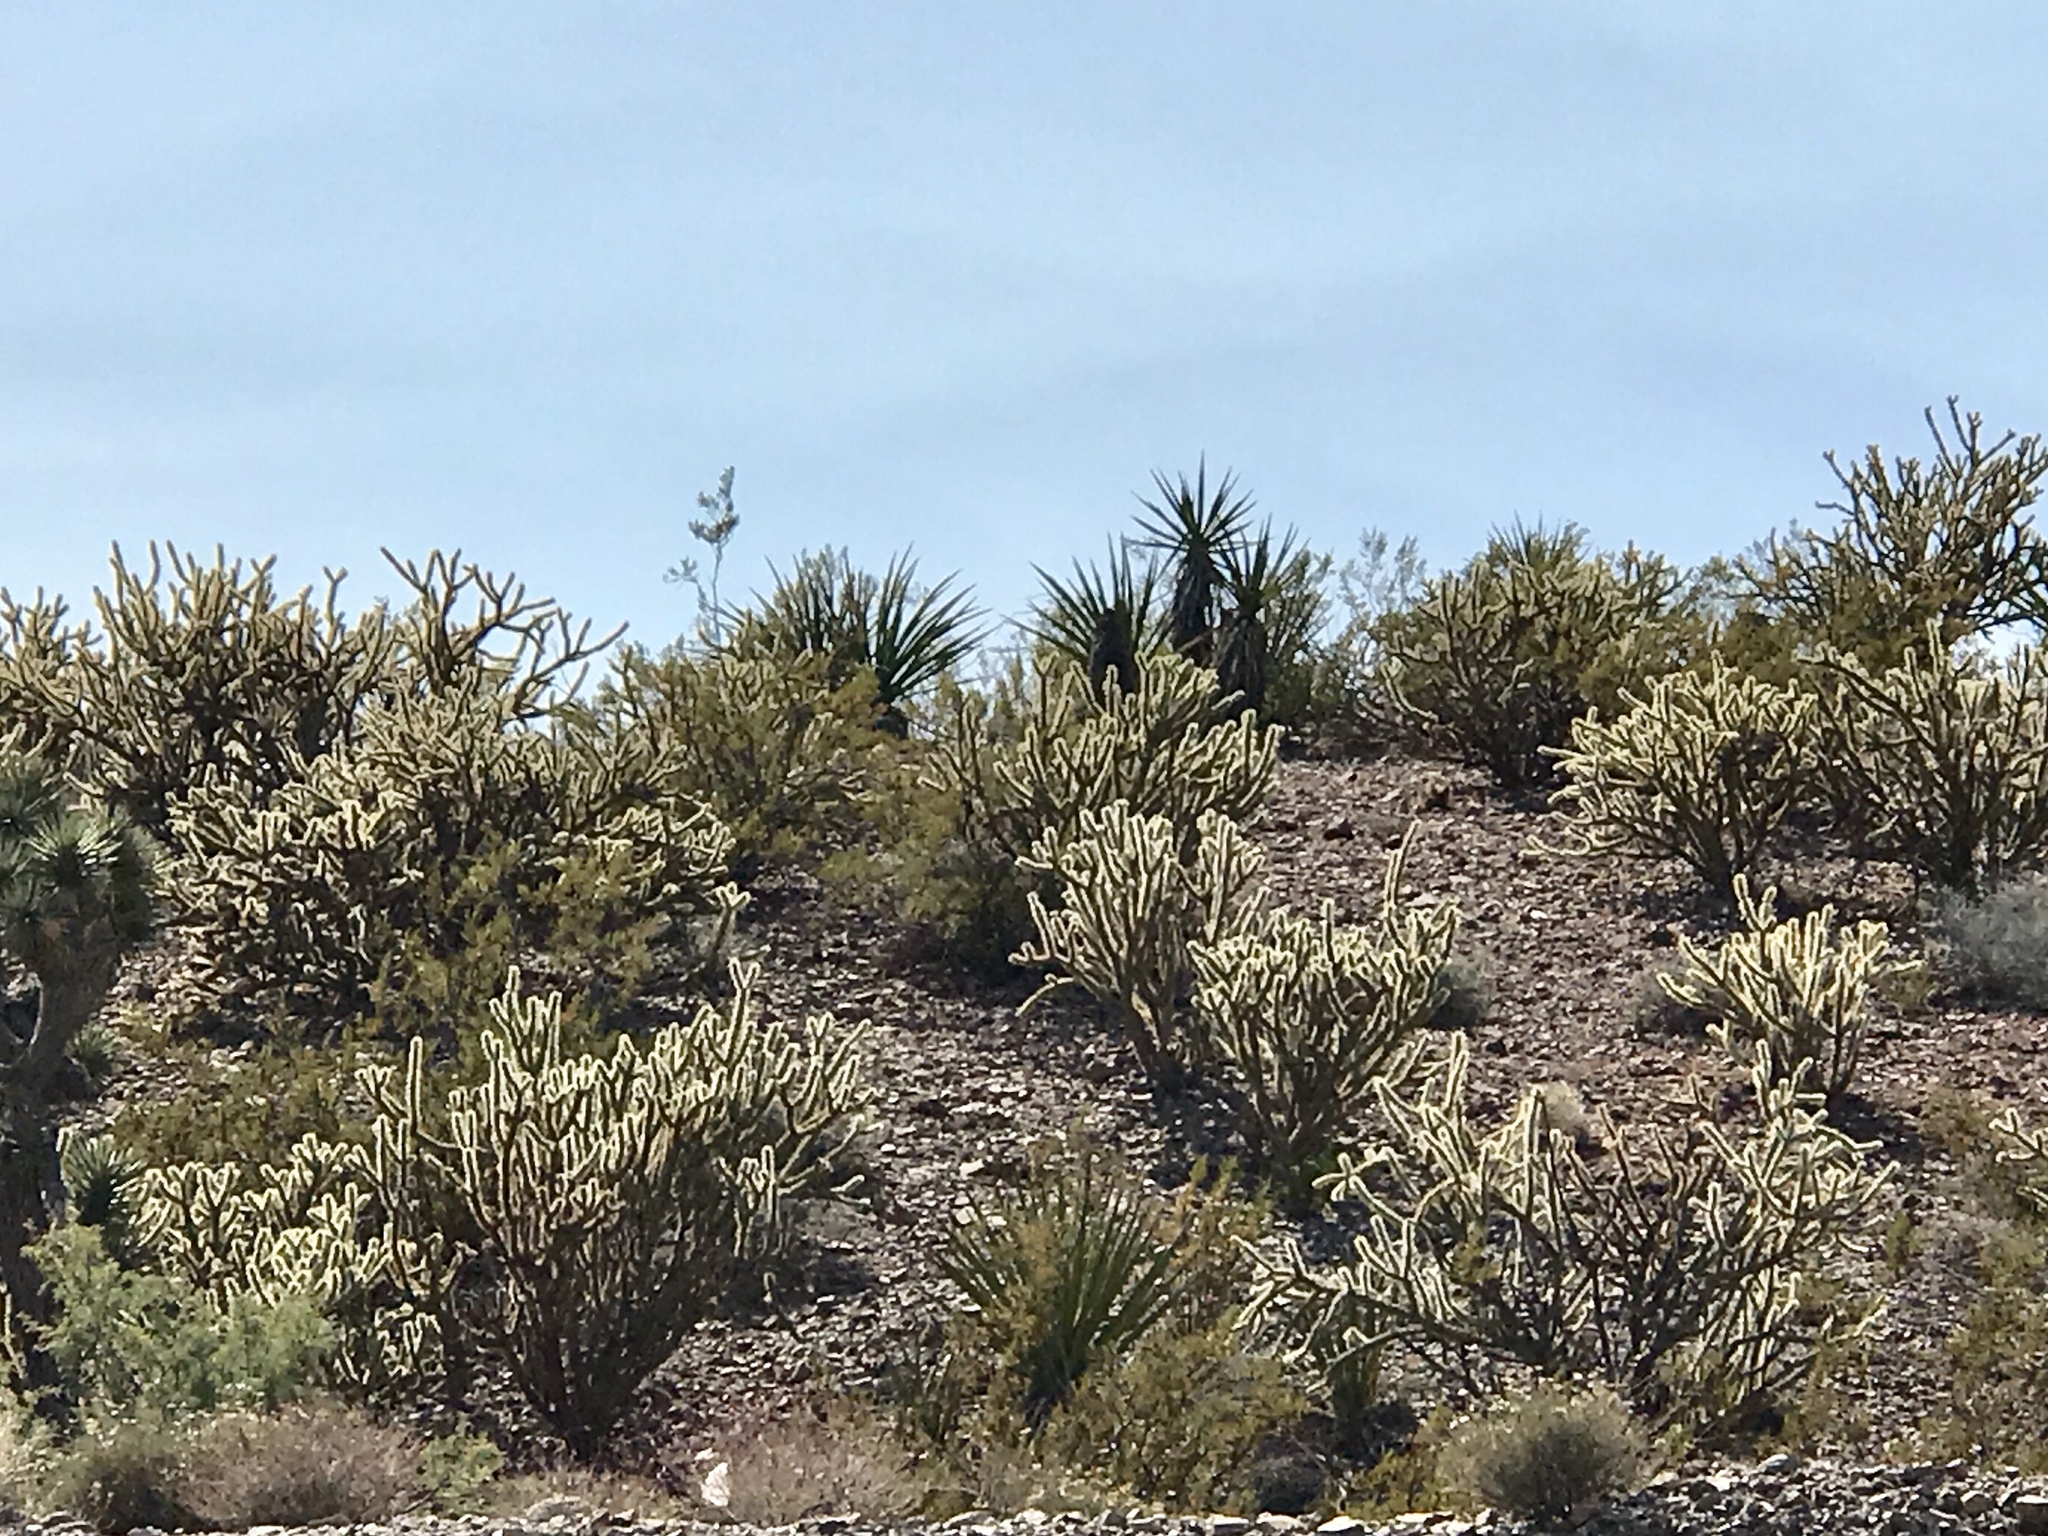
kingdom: Plantae
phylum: Tracheophyta
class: Magnoliopsida
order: Caryophyllales
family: Cactaceae
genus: Cylindropuntia
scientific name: Cylindropuntia acanthocarpa
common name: Buckhorn cholla
